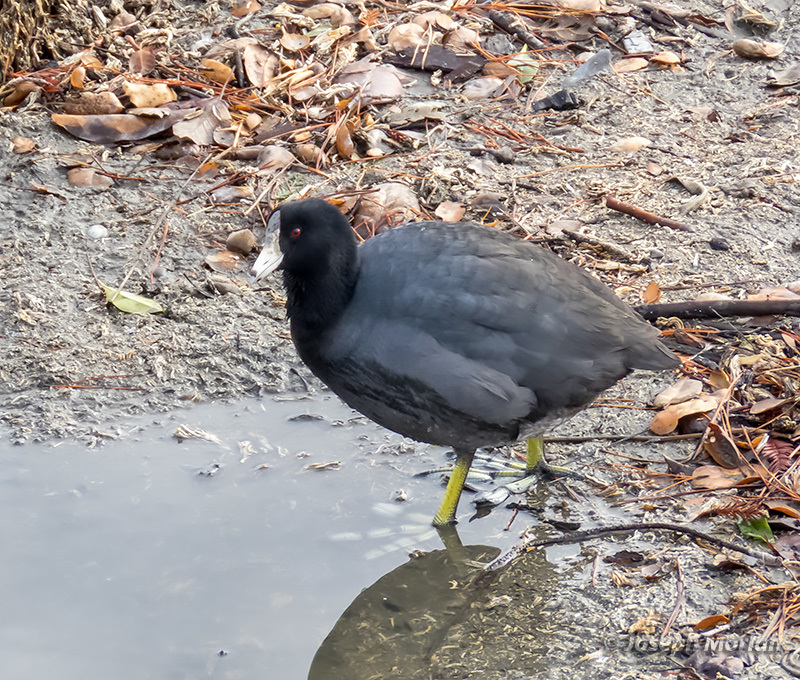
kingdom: Animalia
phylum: Chordata
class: Aves
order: Gruiformes
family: Rallidae
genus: Fulica
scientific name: Fulica americana
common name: American coot
